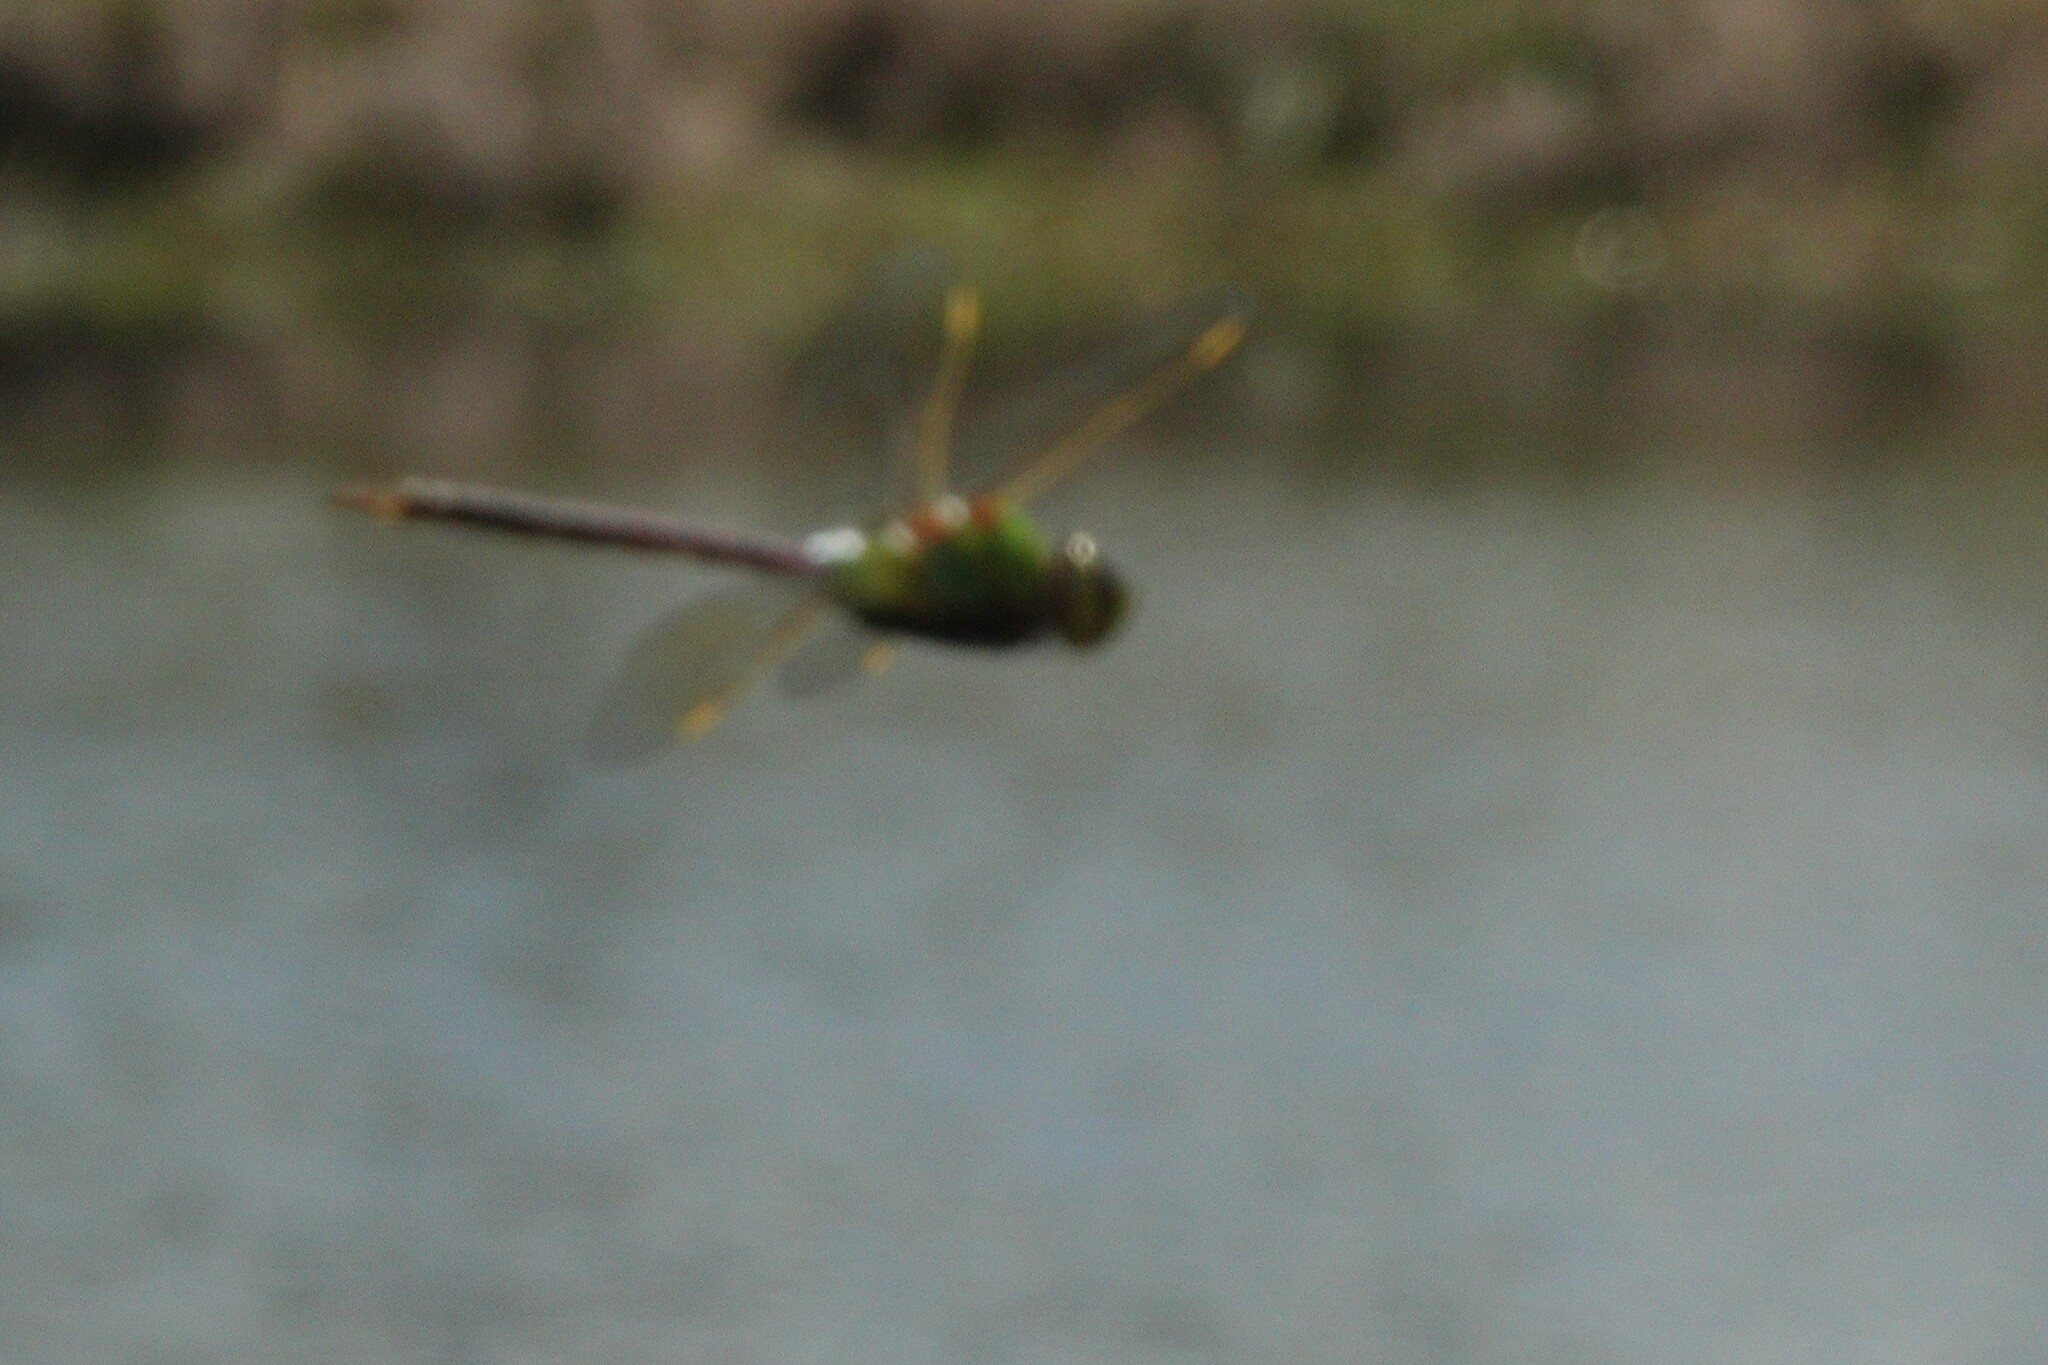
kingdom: Animalia
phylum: Arthropoda
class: Insecta
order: Odonata
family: Aeshnidae
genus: Anax
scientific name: Anax junius
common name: Common green darner
